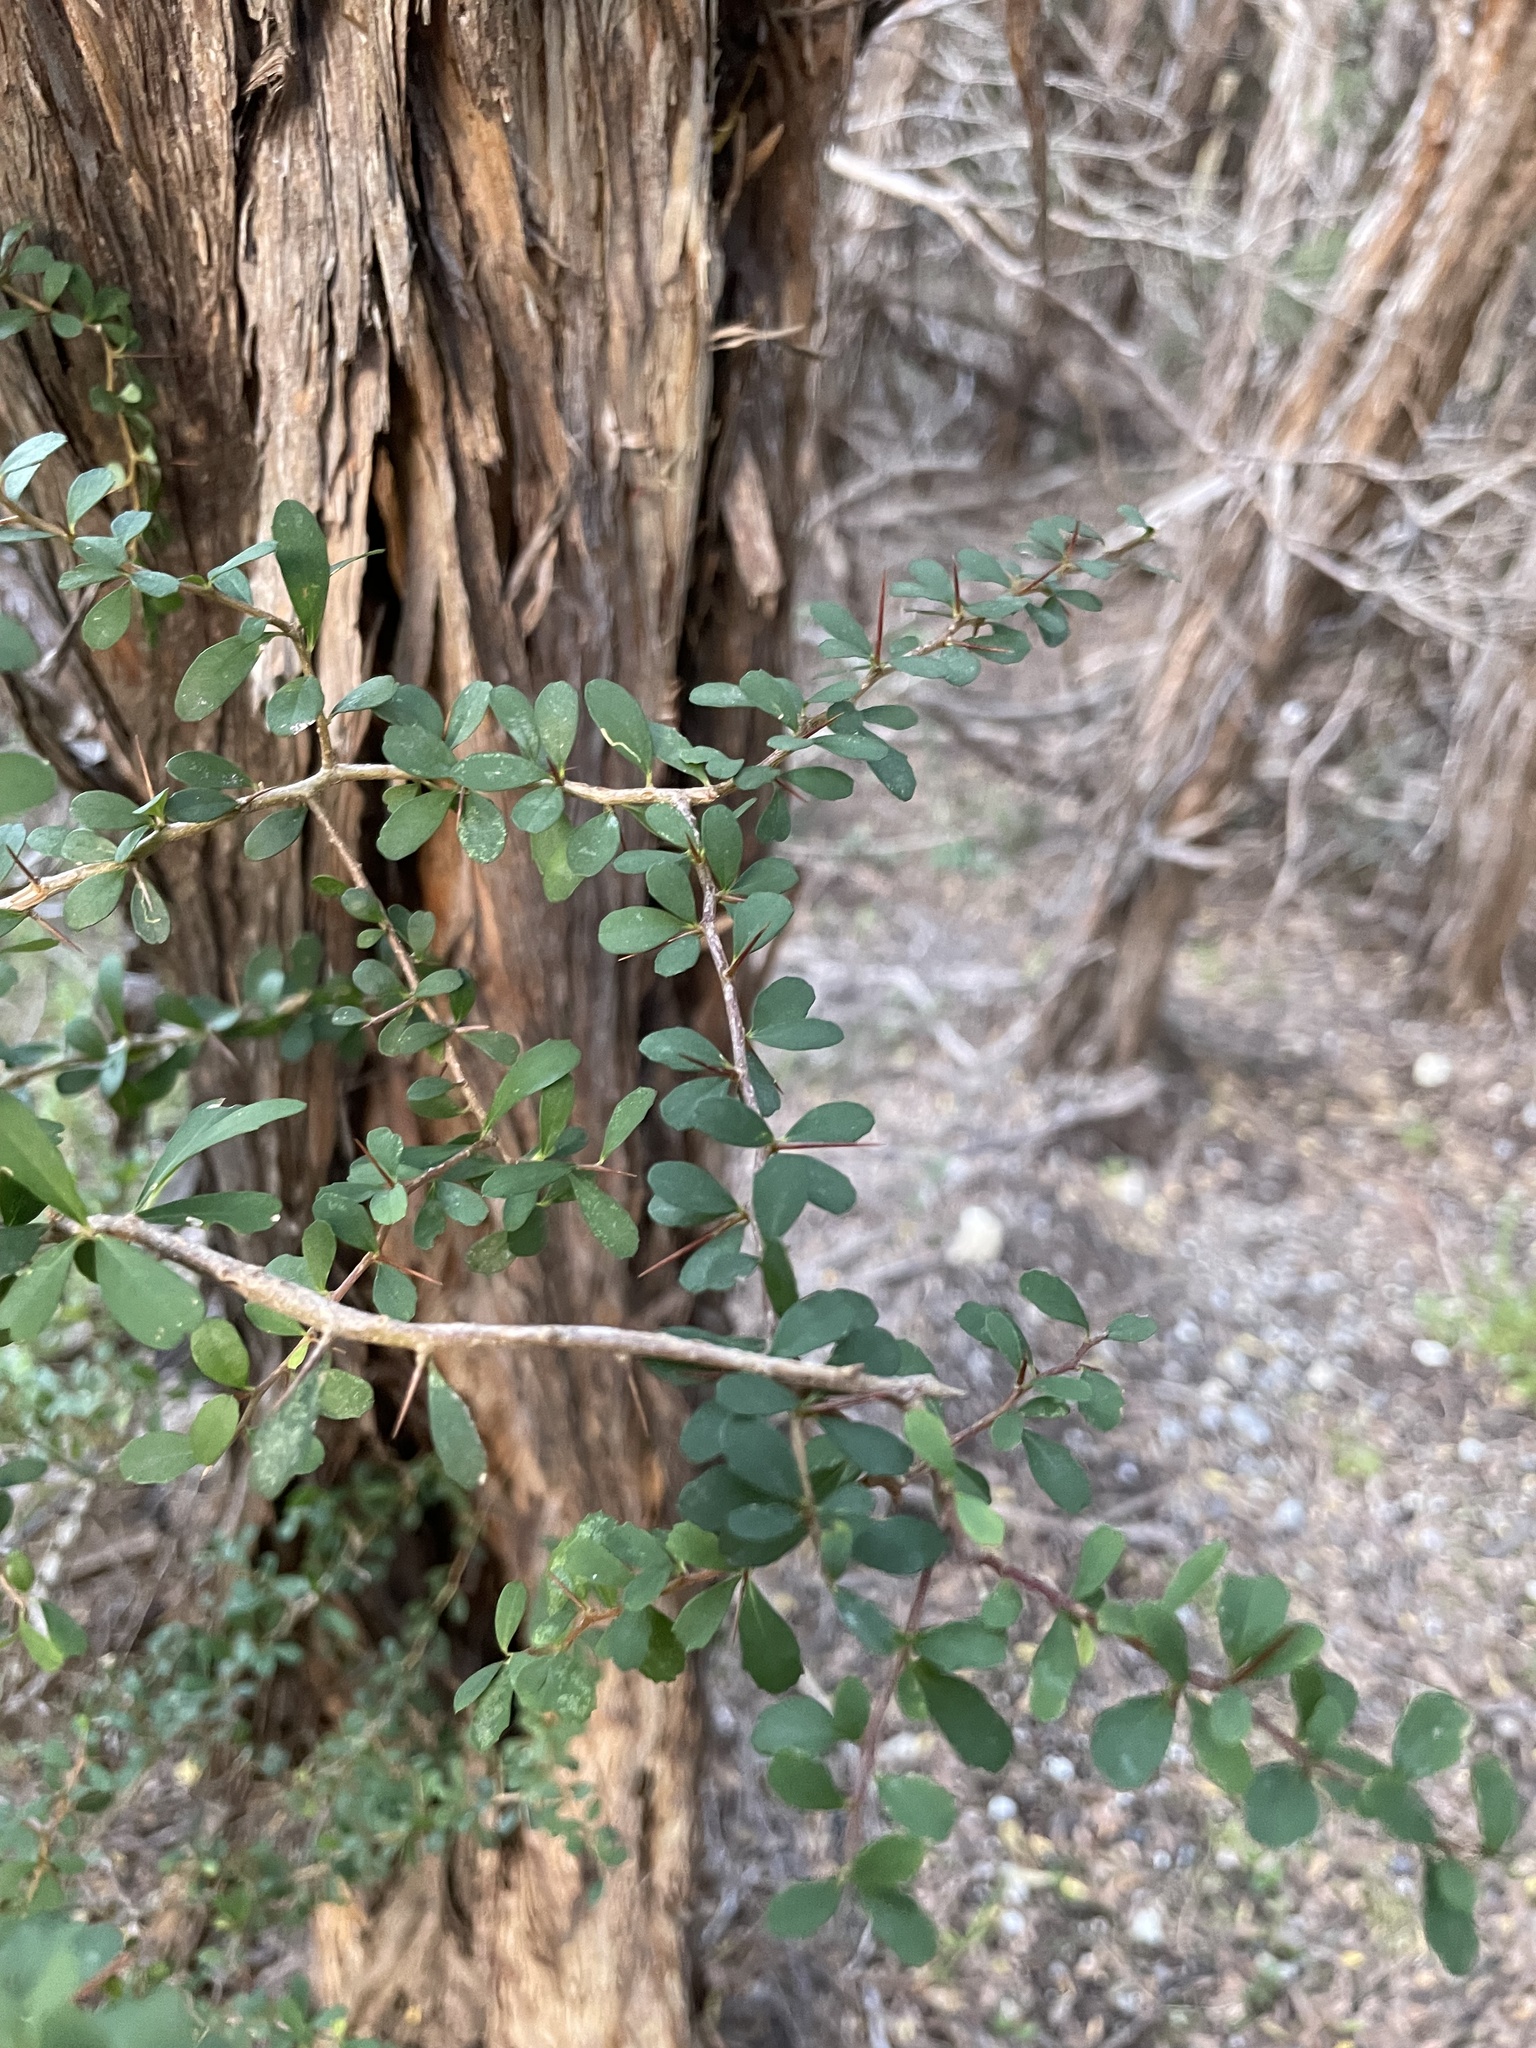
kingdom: Plantae
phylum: Tracheophyta
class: Magnoliopsida
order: Gentianales
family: Rubiaceae
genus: Coprosma
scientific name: Coprosma quadrifida
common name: Prickly currantbush
